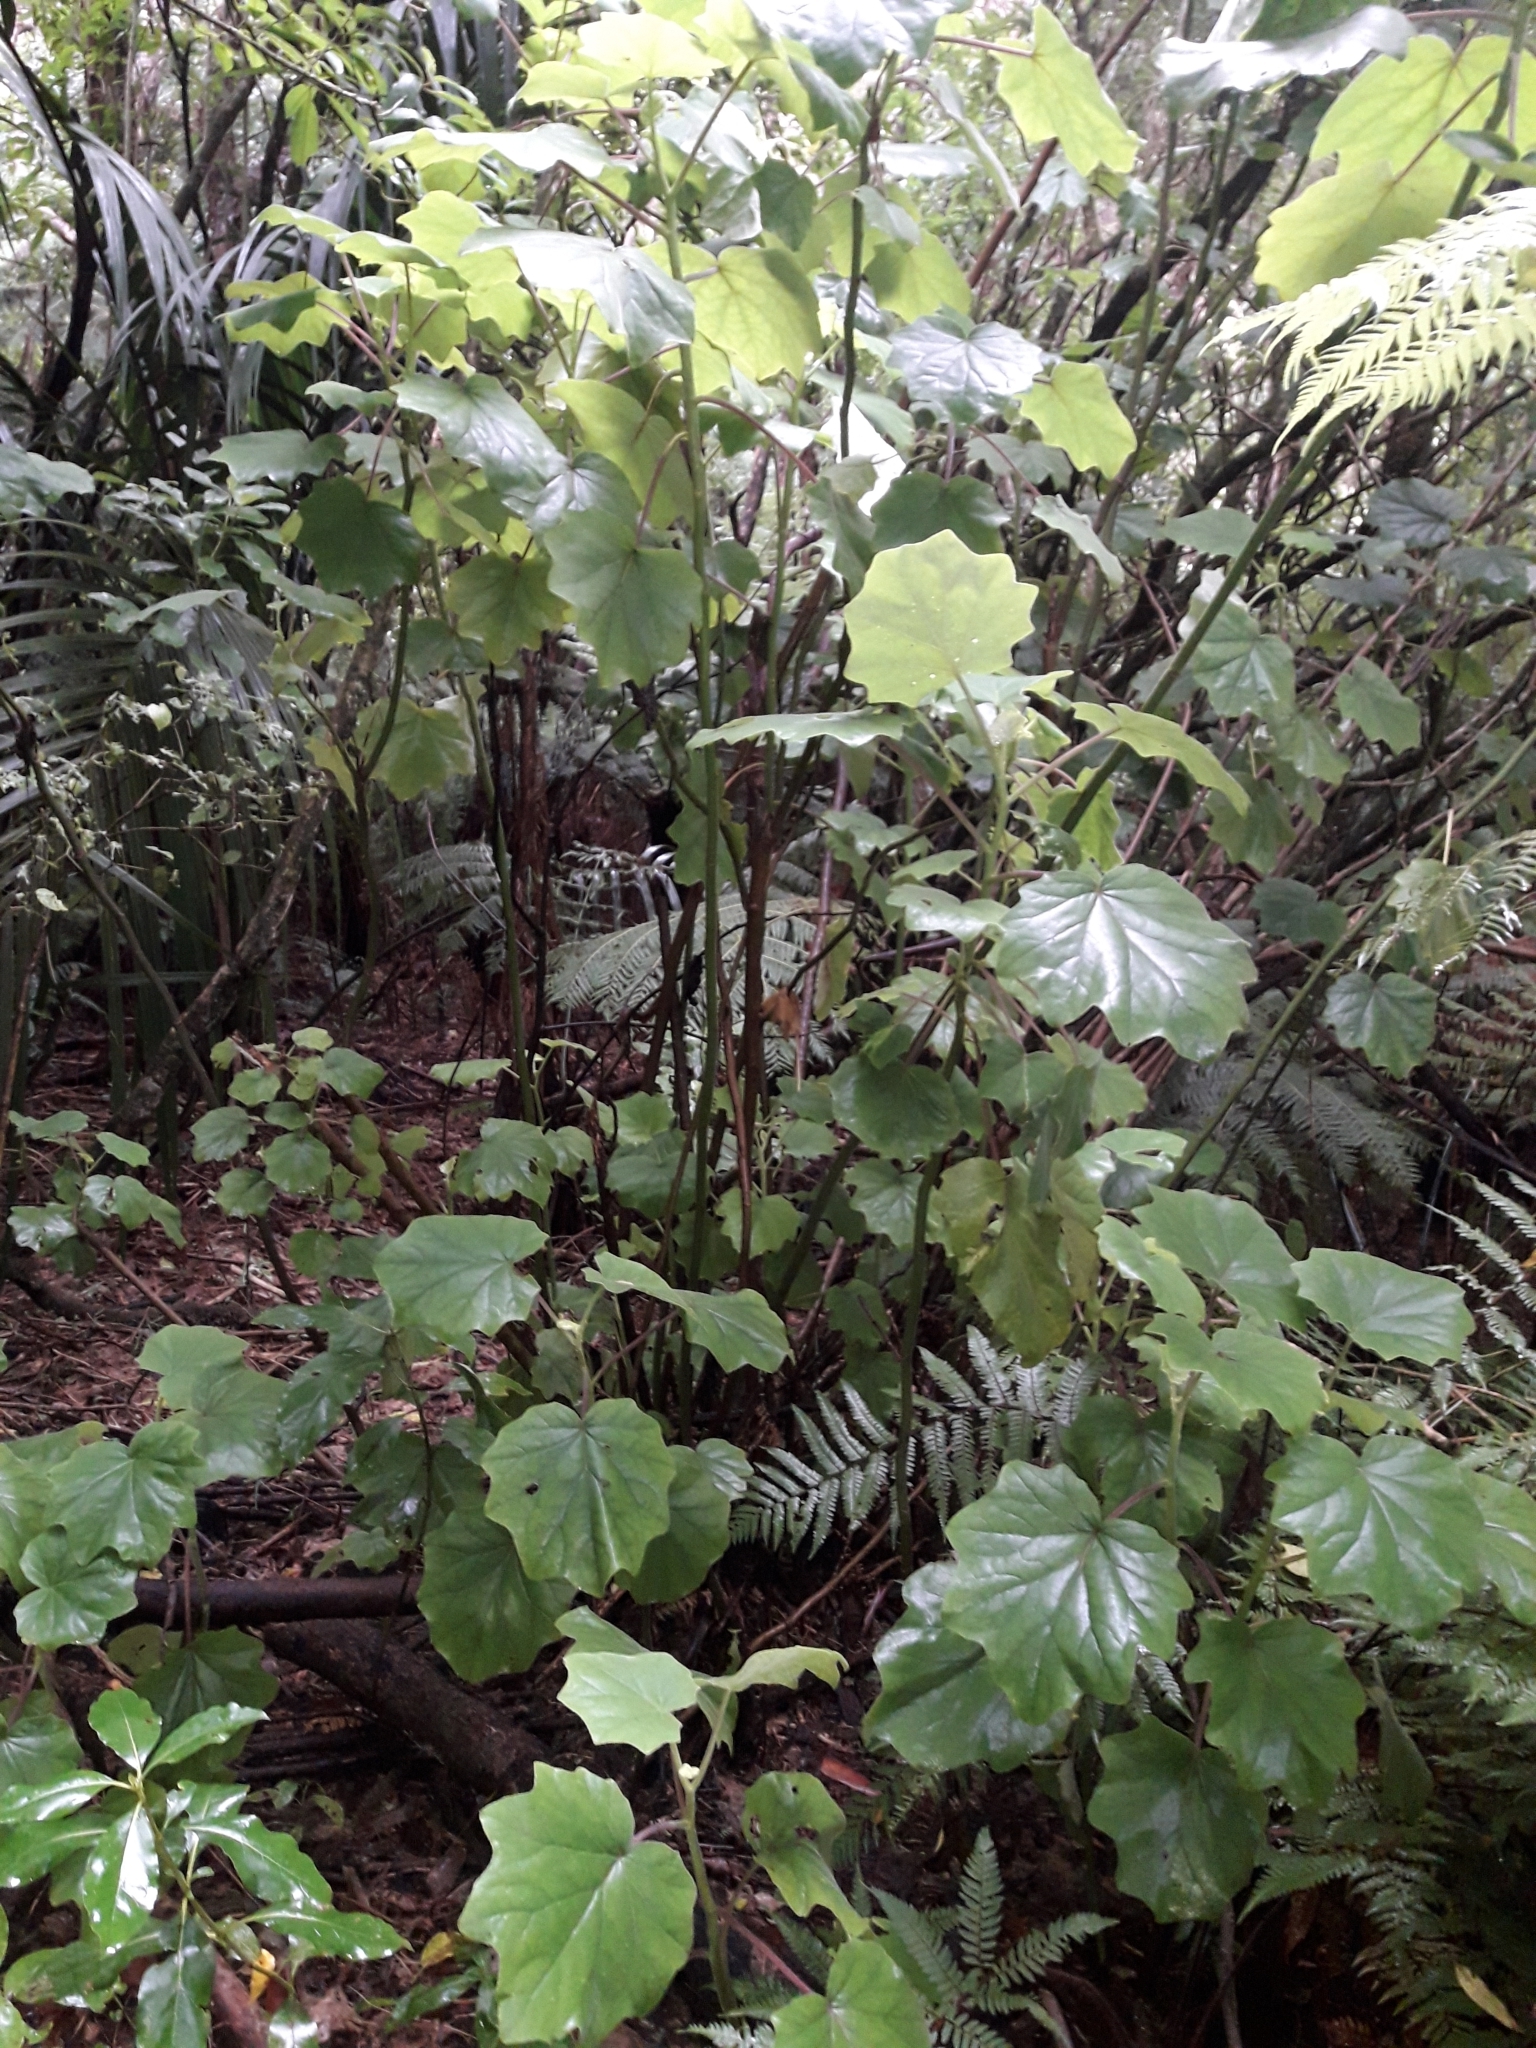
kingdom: Plantae
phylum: Tracheophyta
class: Magnoliopsida
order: Asterales
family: Asteraceae
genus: Roldana
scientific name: Roldana petasitis
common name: California-geranium
